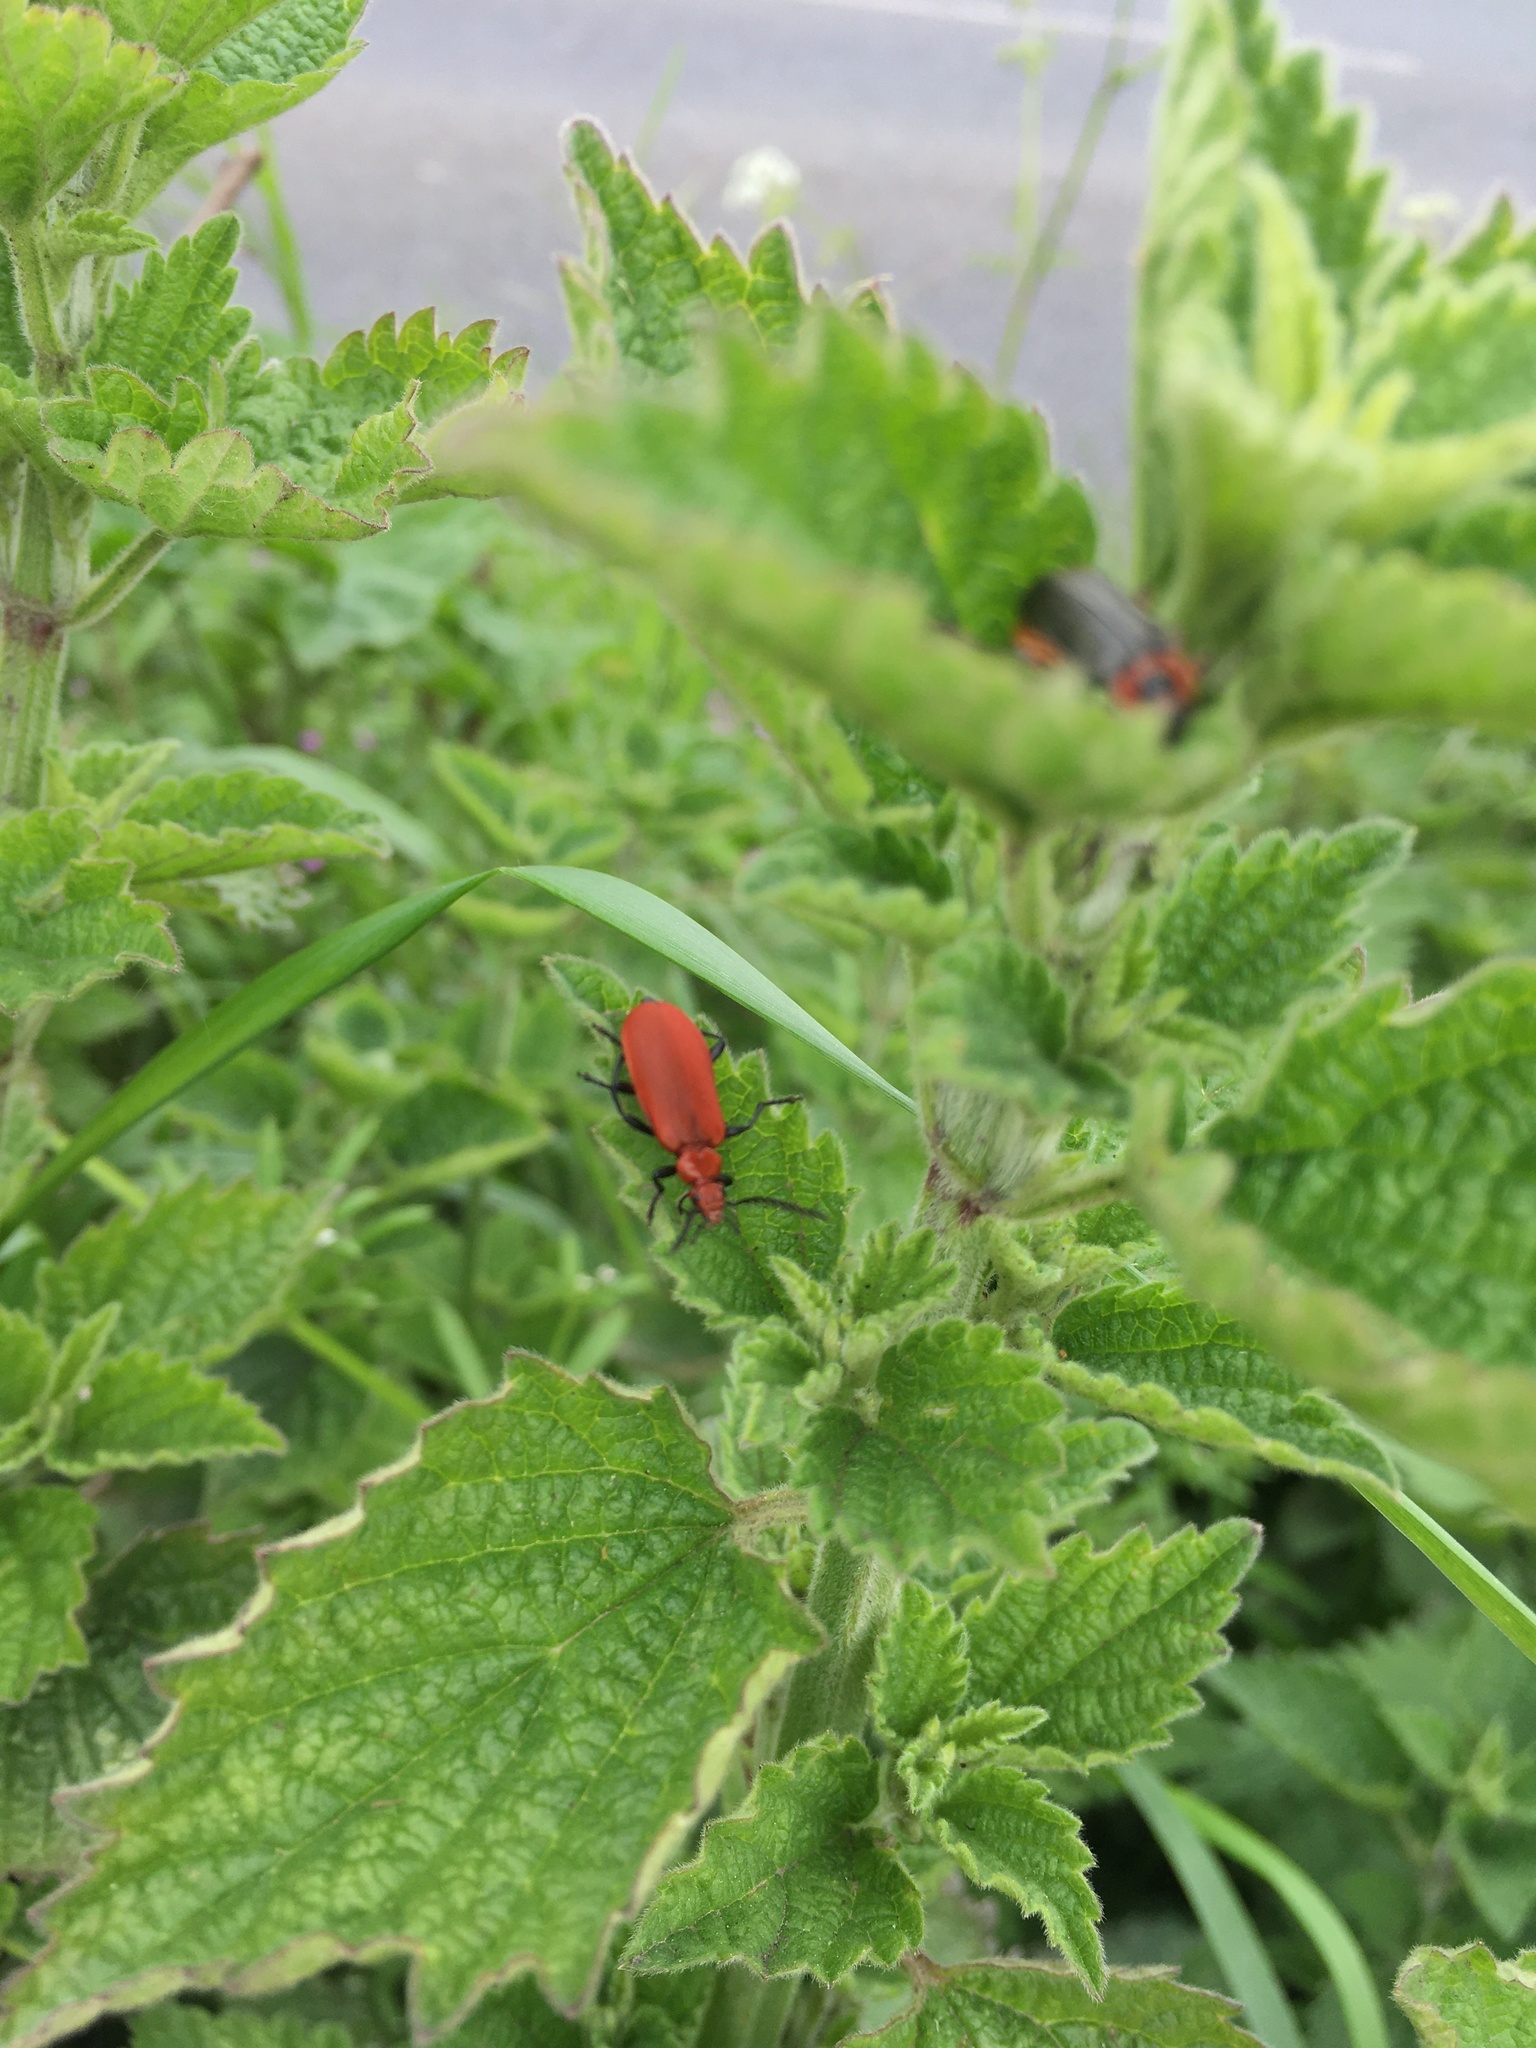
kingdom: Animalia
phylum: Arthropoda
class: Insecta
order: Coleoptera
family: Pyrochroidae
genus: Pyrochroa
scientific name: Pyrochroa serraticornis
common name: Red-headed cardinal beetle
